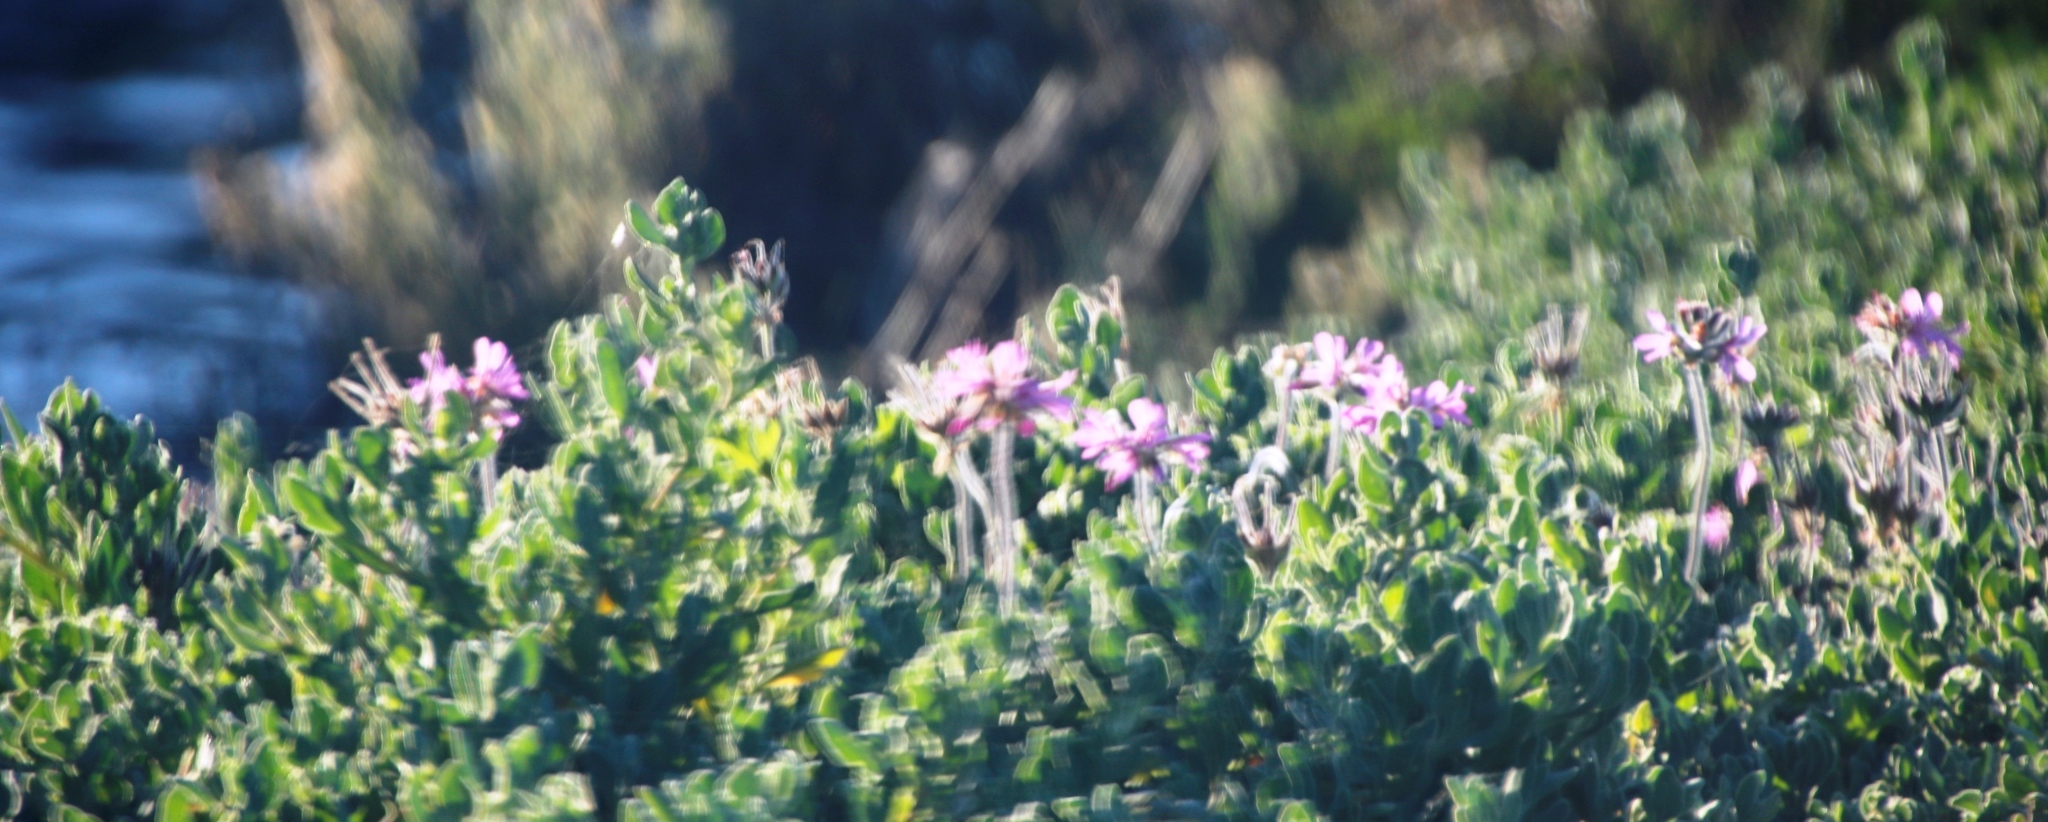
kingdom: Plantae
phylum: Tracheophyta
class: Magnoliopsida
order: Geraniales
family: Geraniaceae
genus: Pelargonium
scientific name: Pelargonium capitatum
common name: Rose scented geranium
